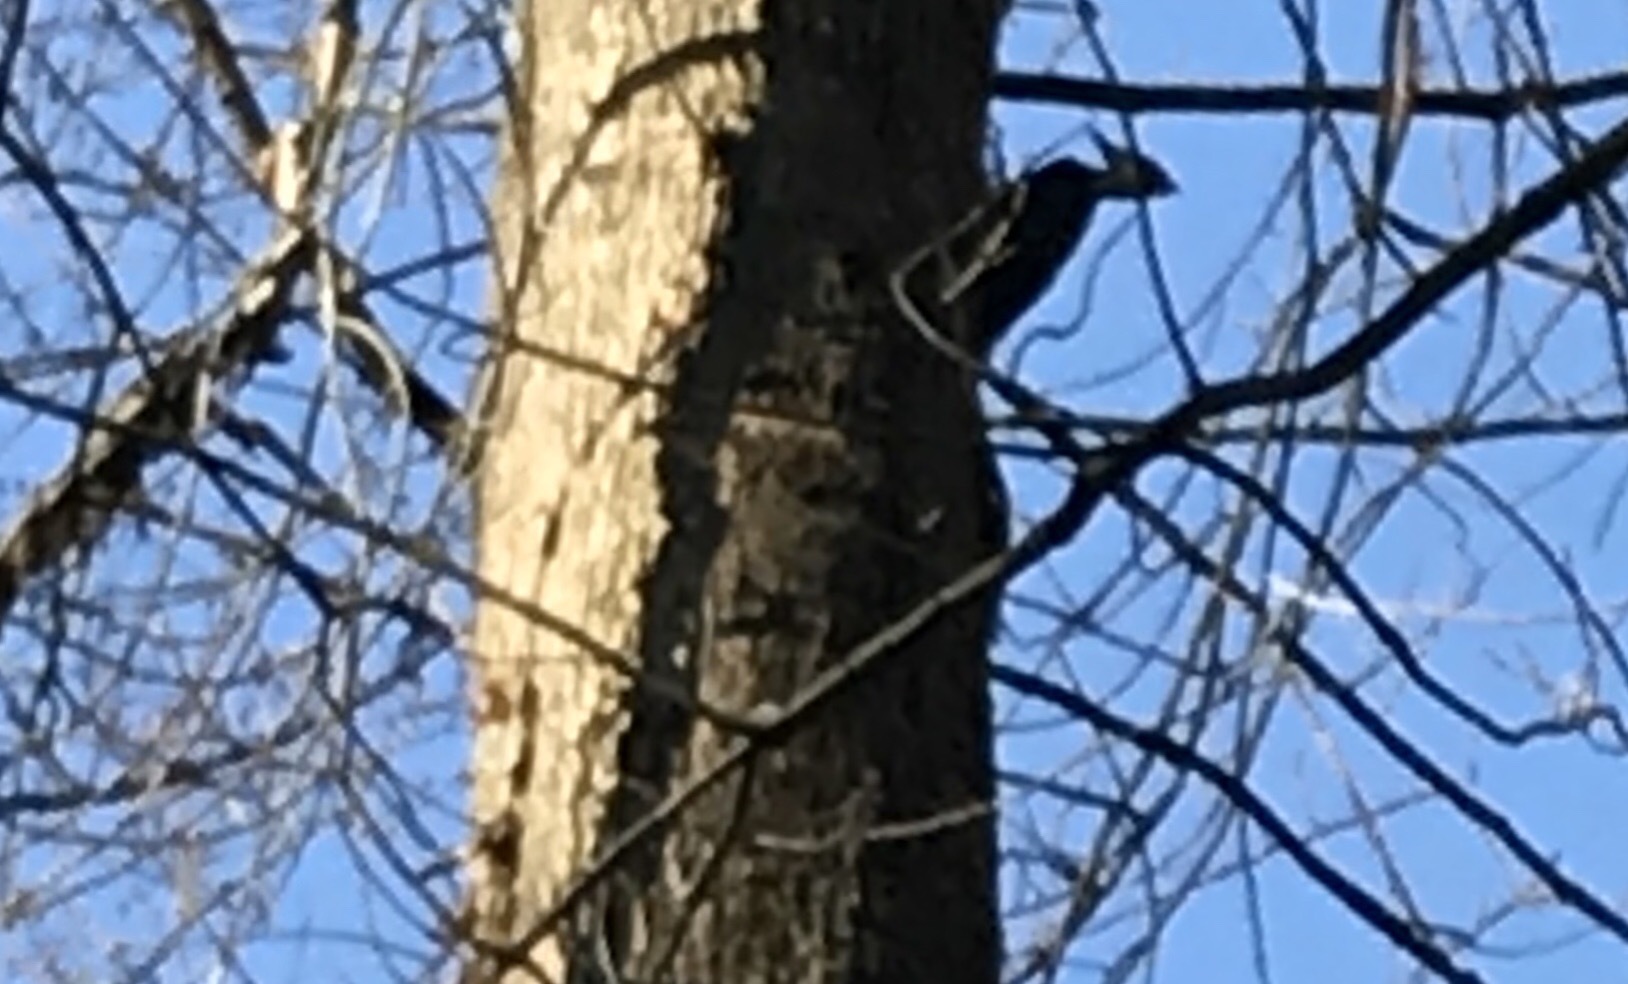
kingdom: Animalia
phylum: Chordata
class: Aves
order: Piciformes
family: Picidae
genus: Dryocopus
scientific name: Dryocopus pileatus
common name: Pileated woodpecker
